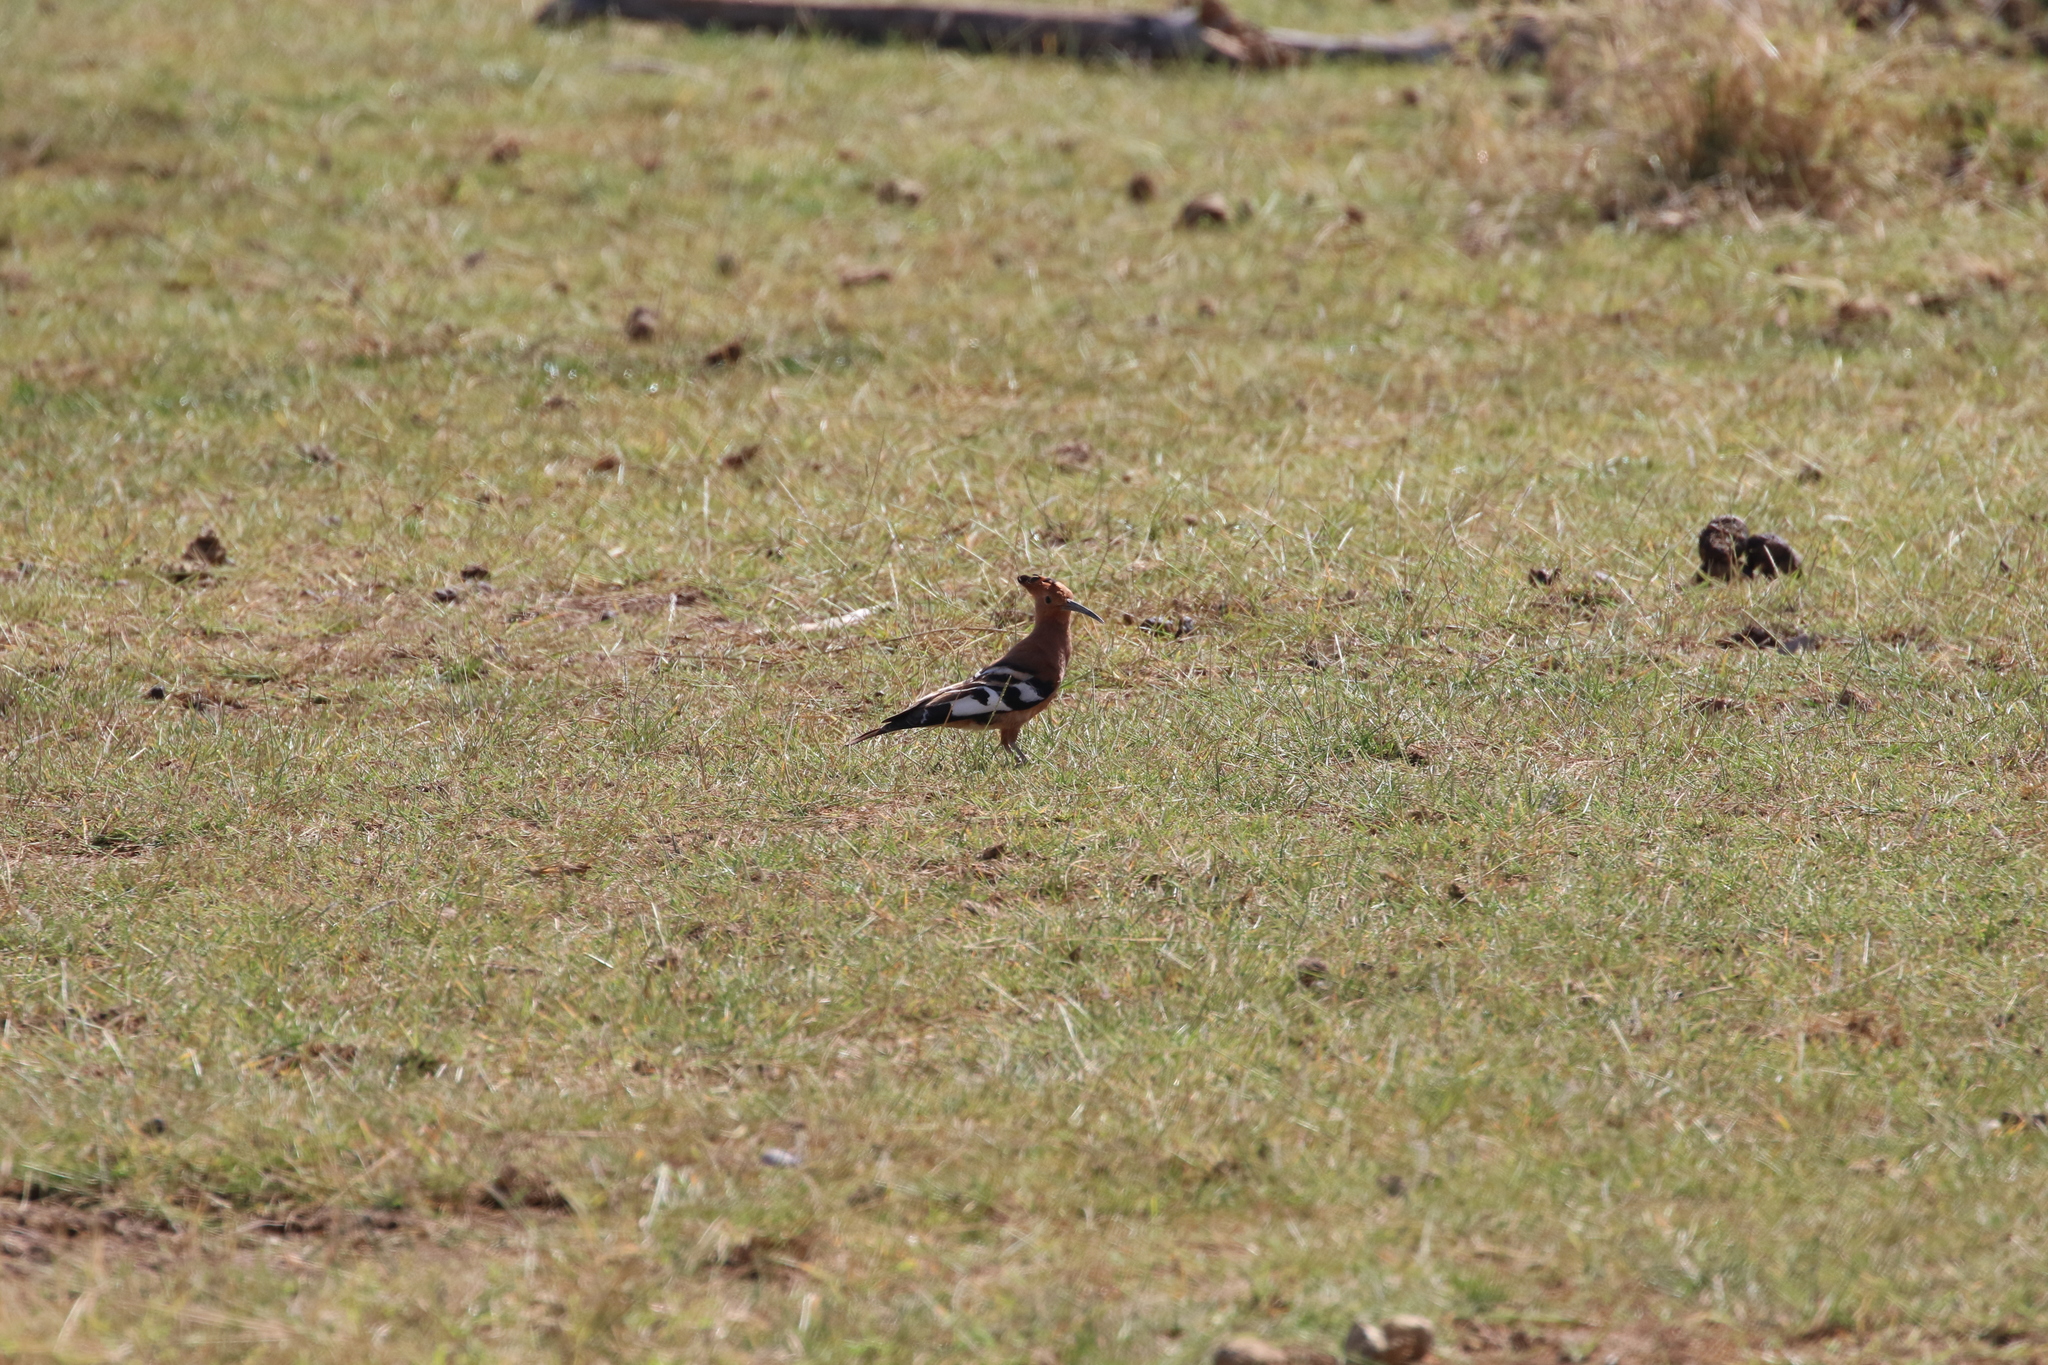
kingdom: Animalia
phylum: Chordata
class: Aves
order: Bucerotiformes
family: Upupidae
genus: Upupa
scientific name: Upupa epops
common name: Eurasian hoopoe
